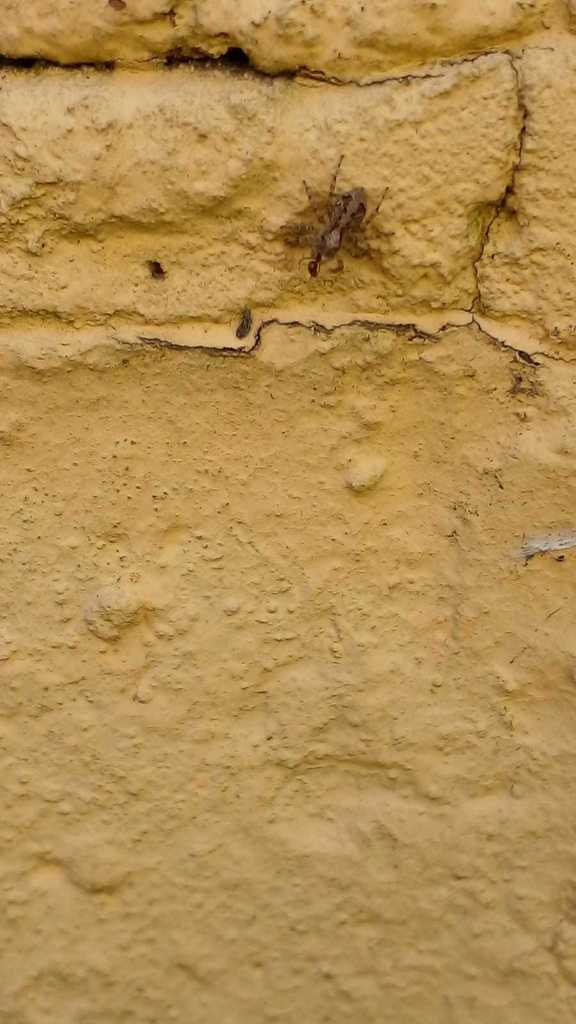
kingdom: Animalia
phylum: Arthropoda
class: Arachnida
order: Araneae
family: Salticidae
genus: Saitis
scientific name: Saitis variegatus
